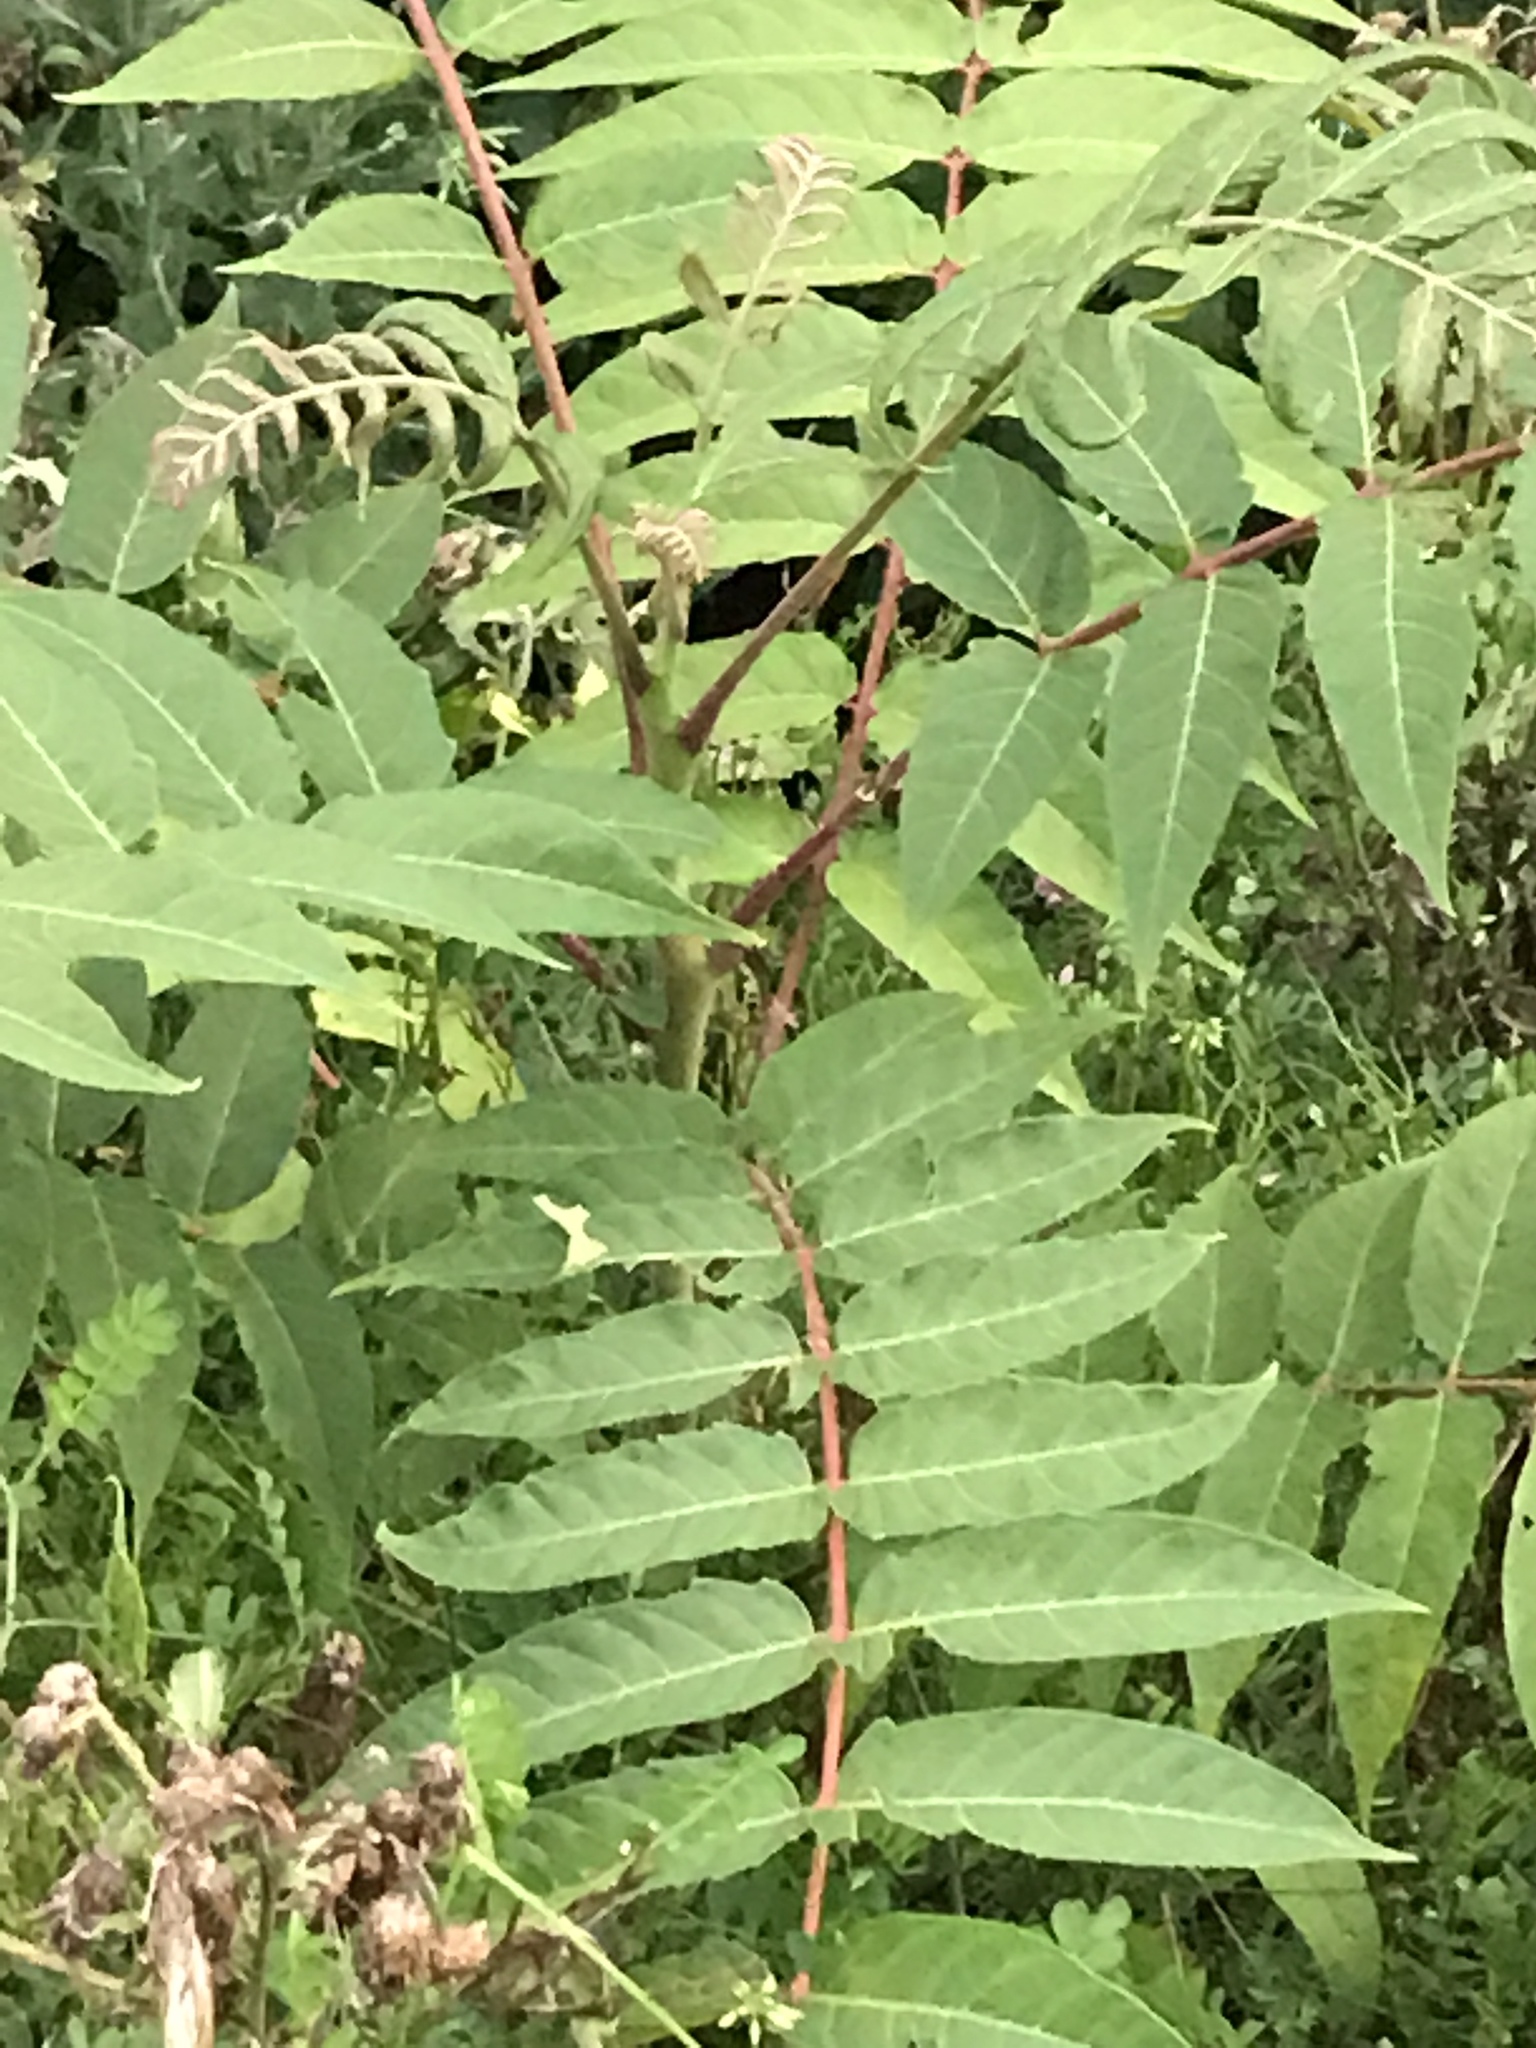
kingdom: Plantae
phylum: Tracheophyta
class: Magnoliopsida
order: Sapindales
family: Simaroubaceae
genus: Ailanthus
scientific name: Ailanthus altissima
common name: Tree-of-heaven
